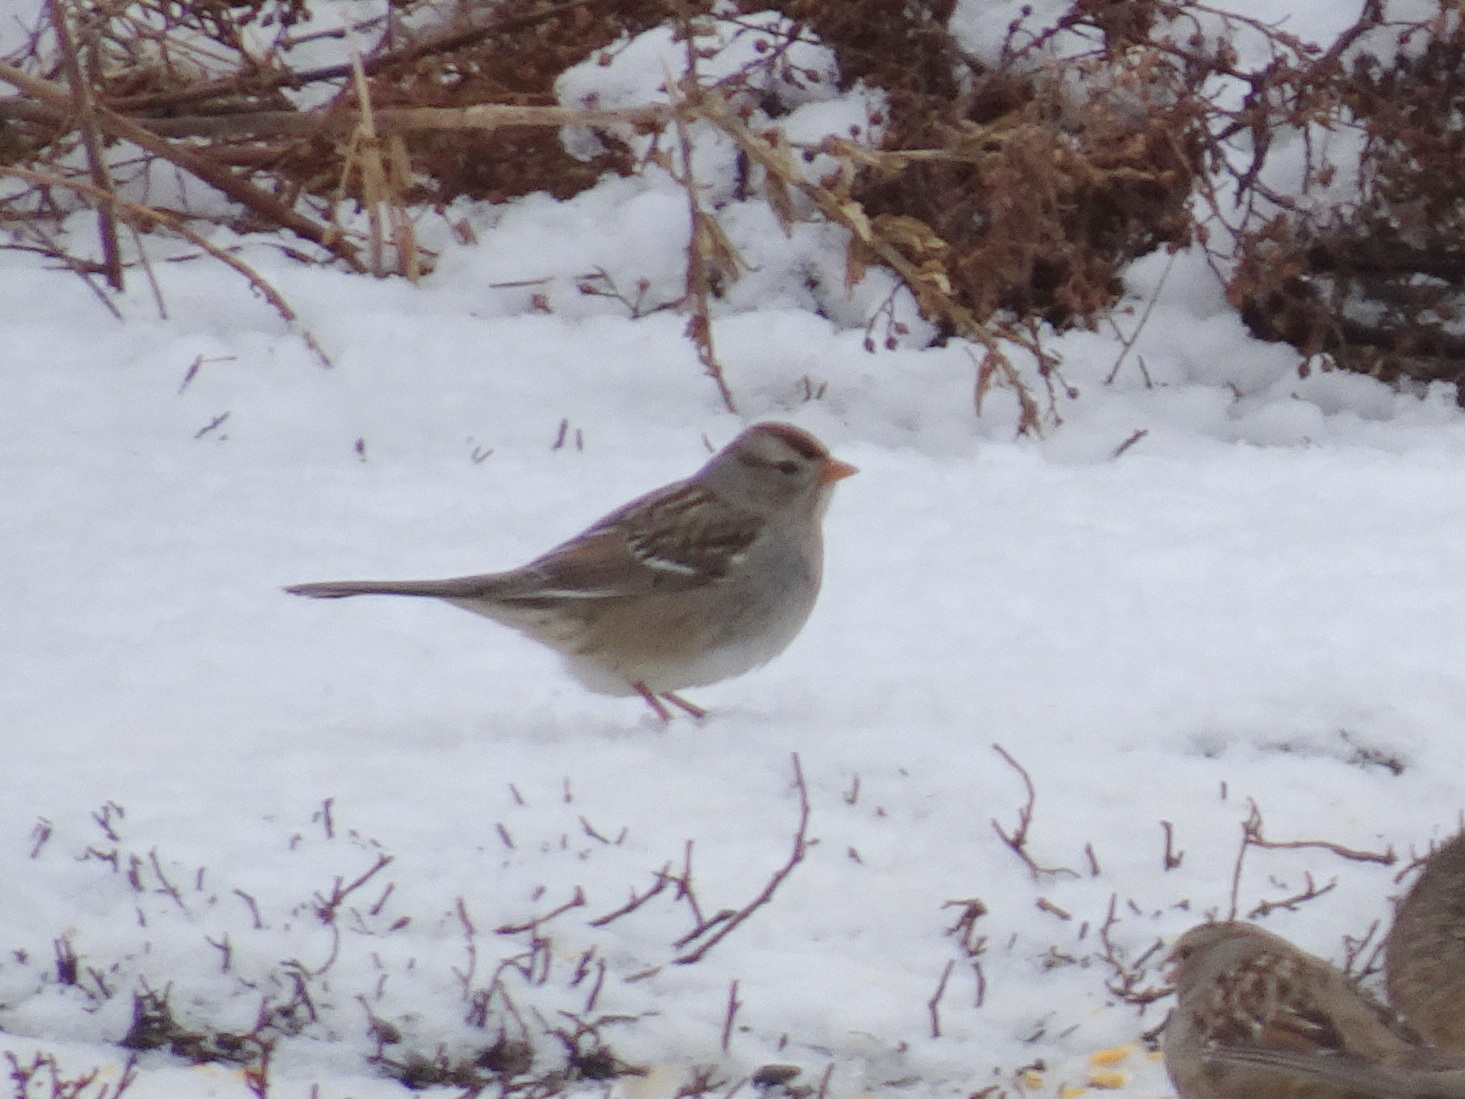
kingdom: Animalia
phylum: Chordata
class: Aves
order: Passeriformes
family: Passerellidae
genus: Zonotrichia
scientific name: Zonotrichia leucophrys
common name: White-crowned sparrow
